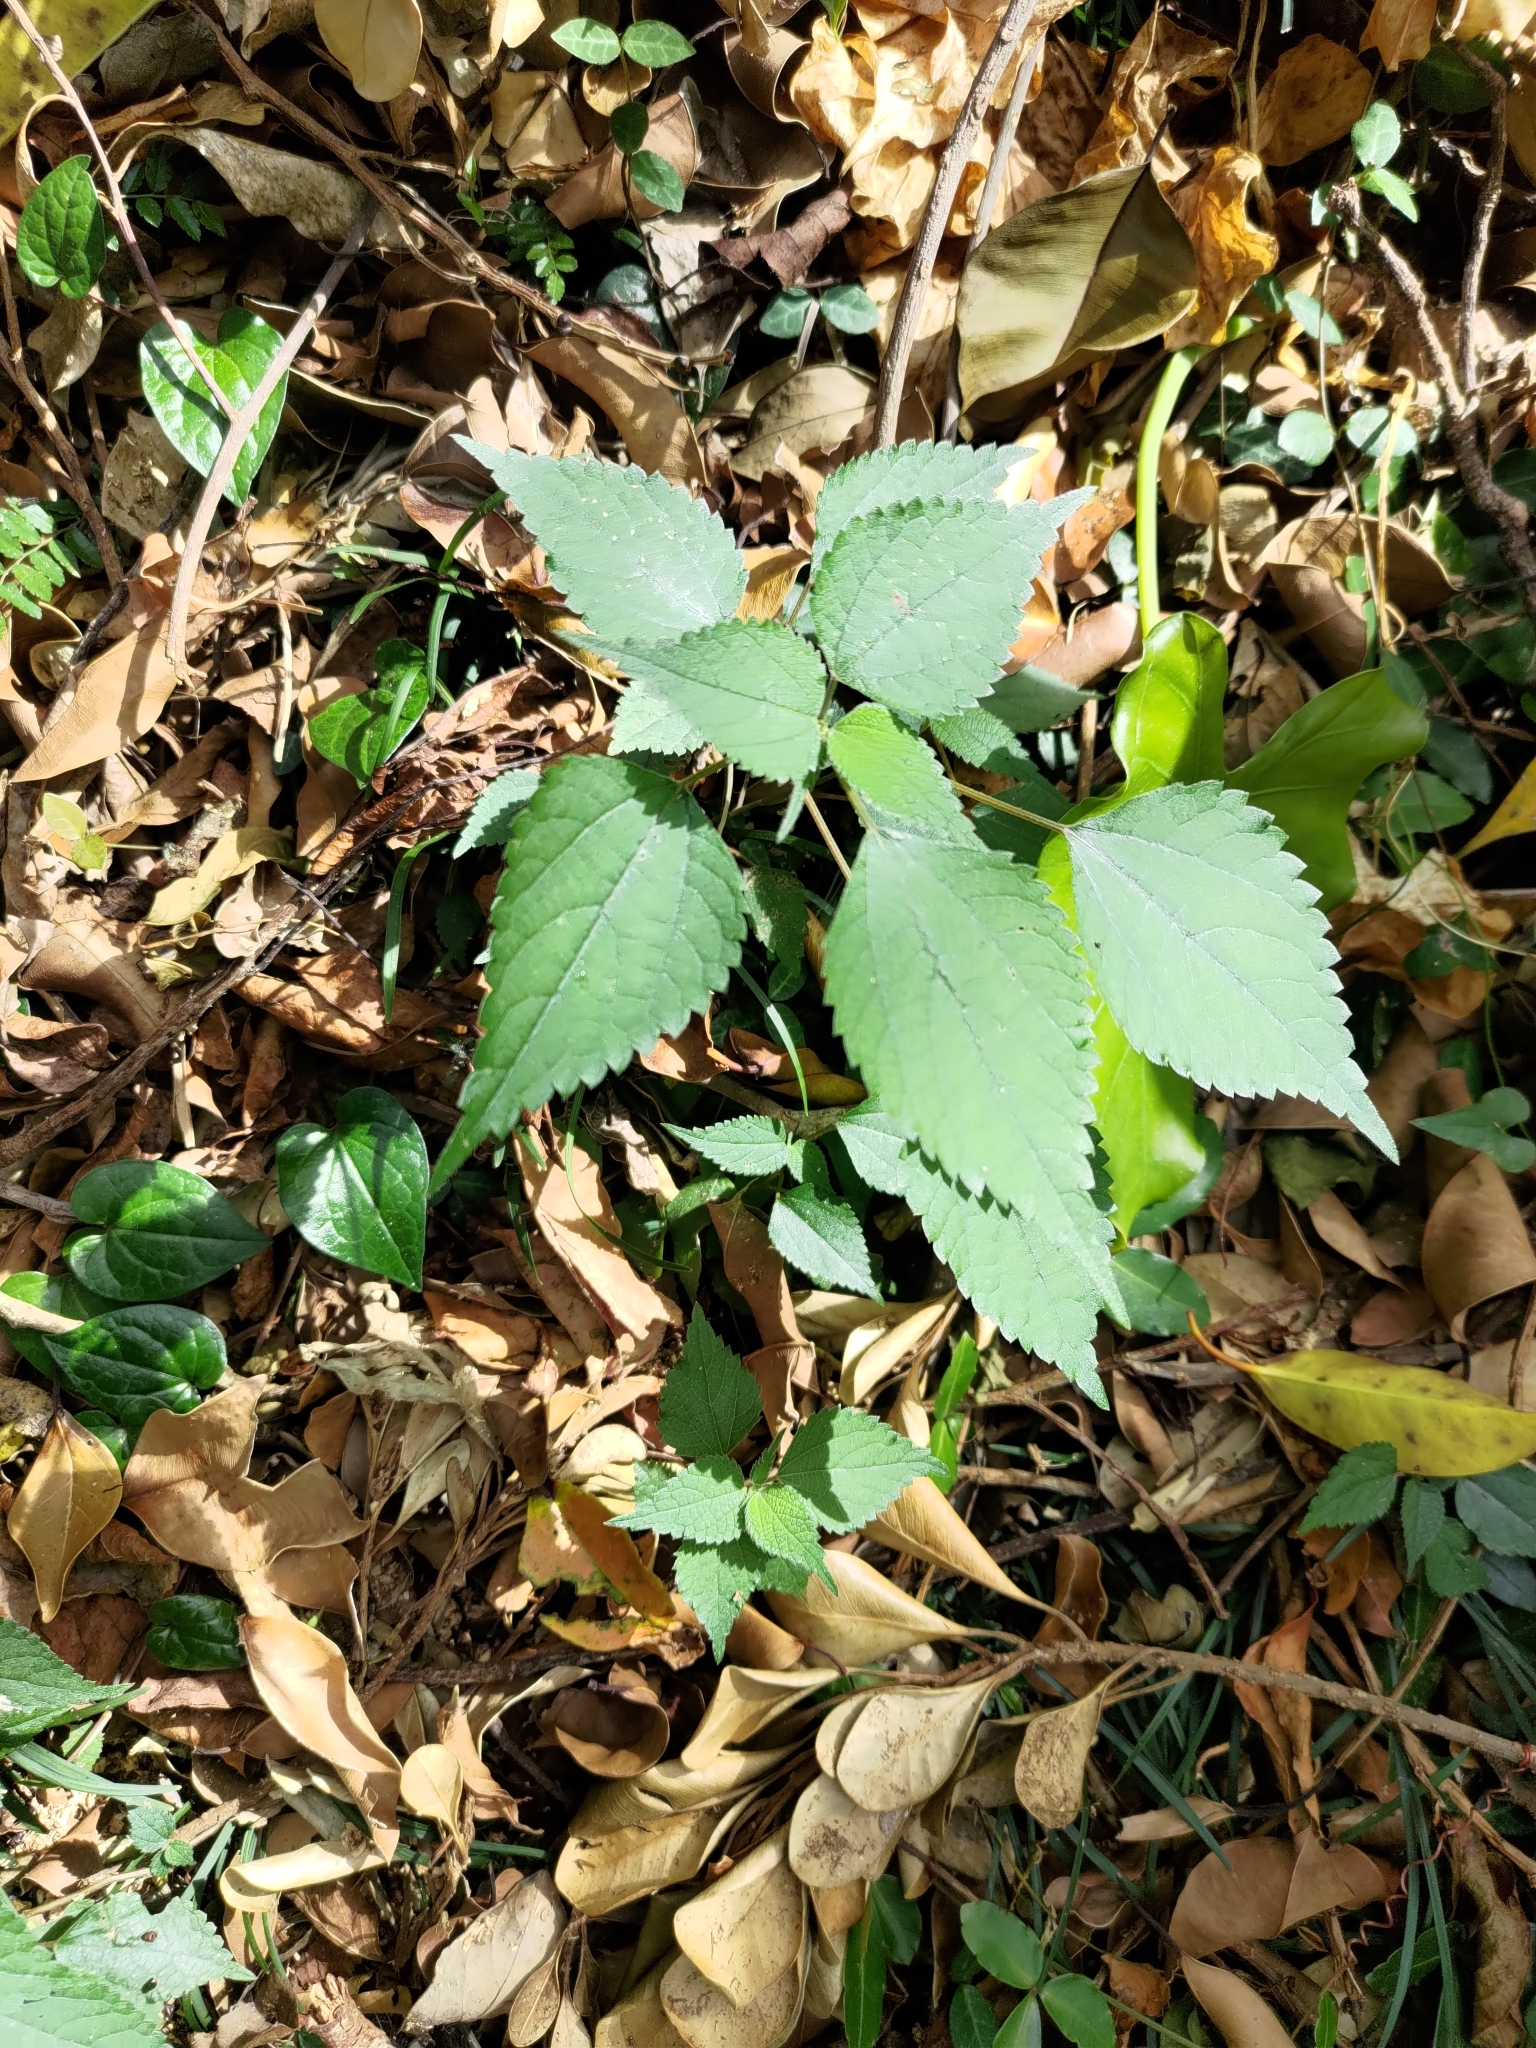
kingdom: Plantae
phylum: Tracheophyta
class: Magnoliopsida
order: Rosales
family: Urticaceae
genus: Boehmeria
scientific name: Boehmeria nivea
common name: Ramie chinese grass
